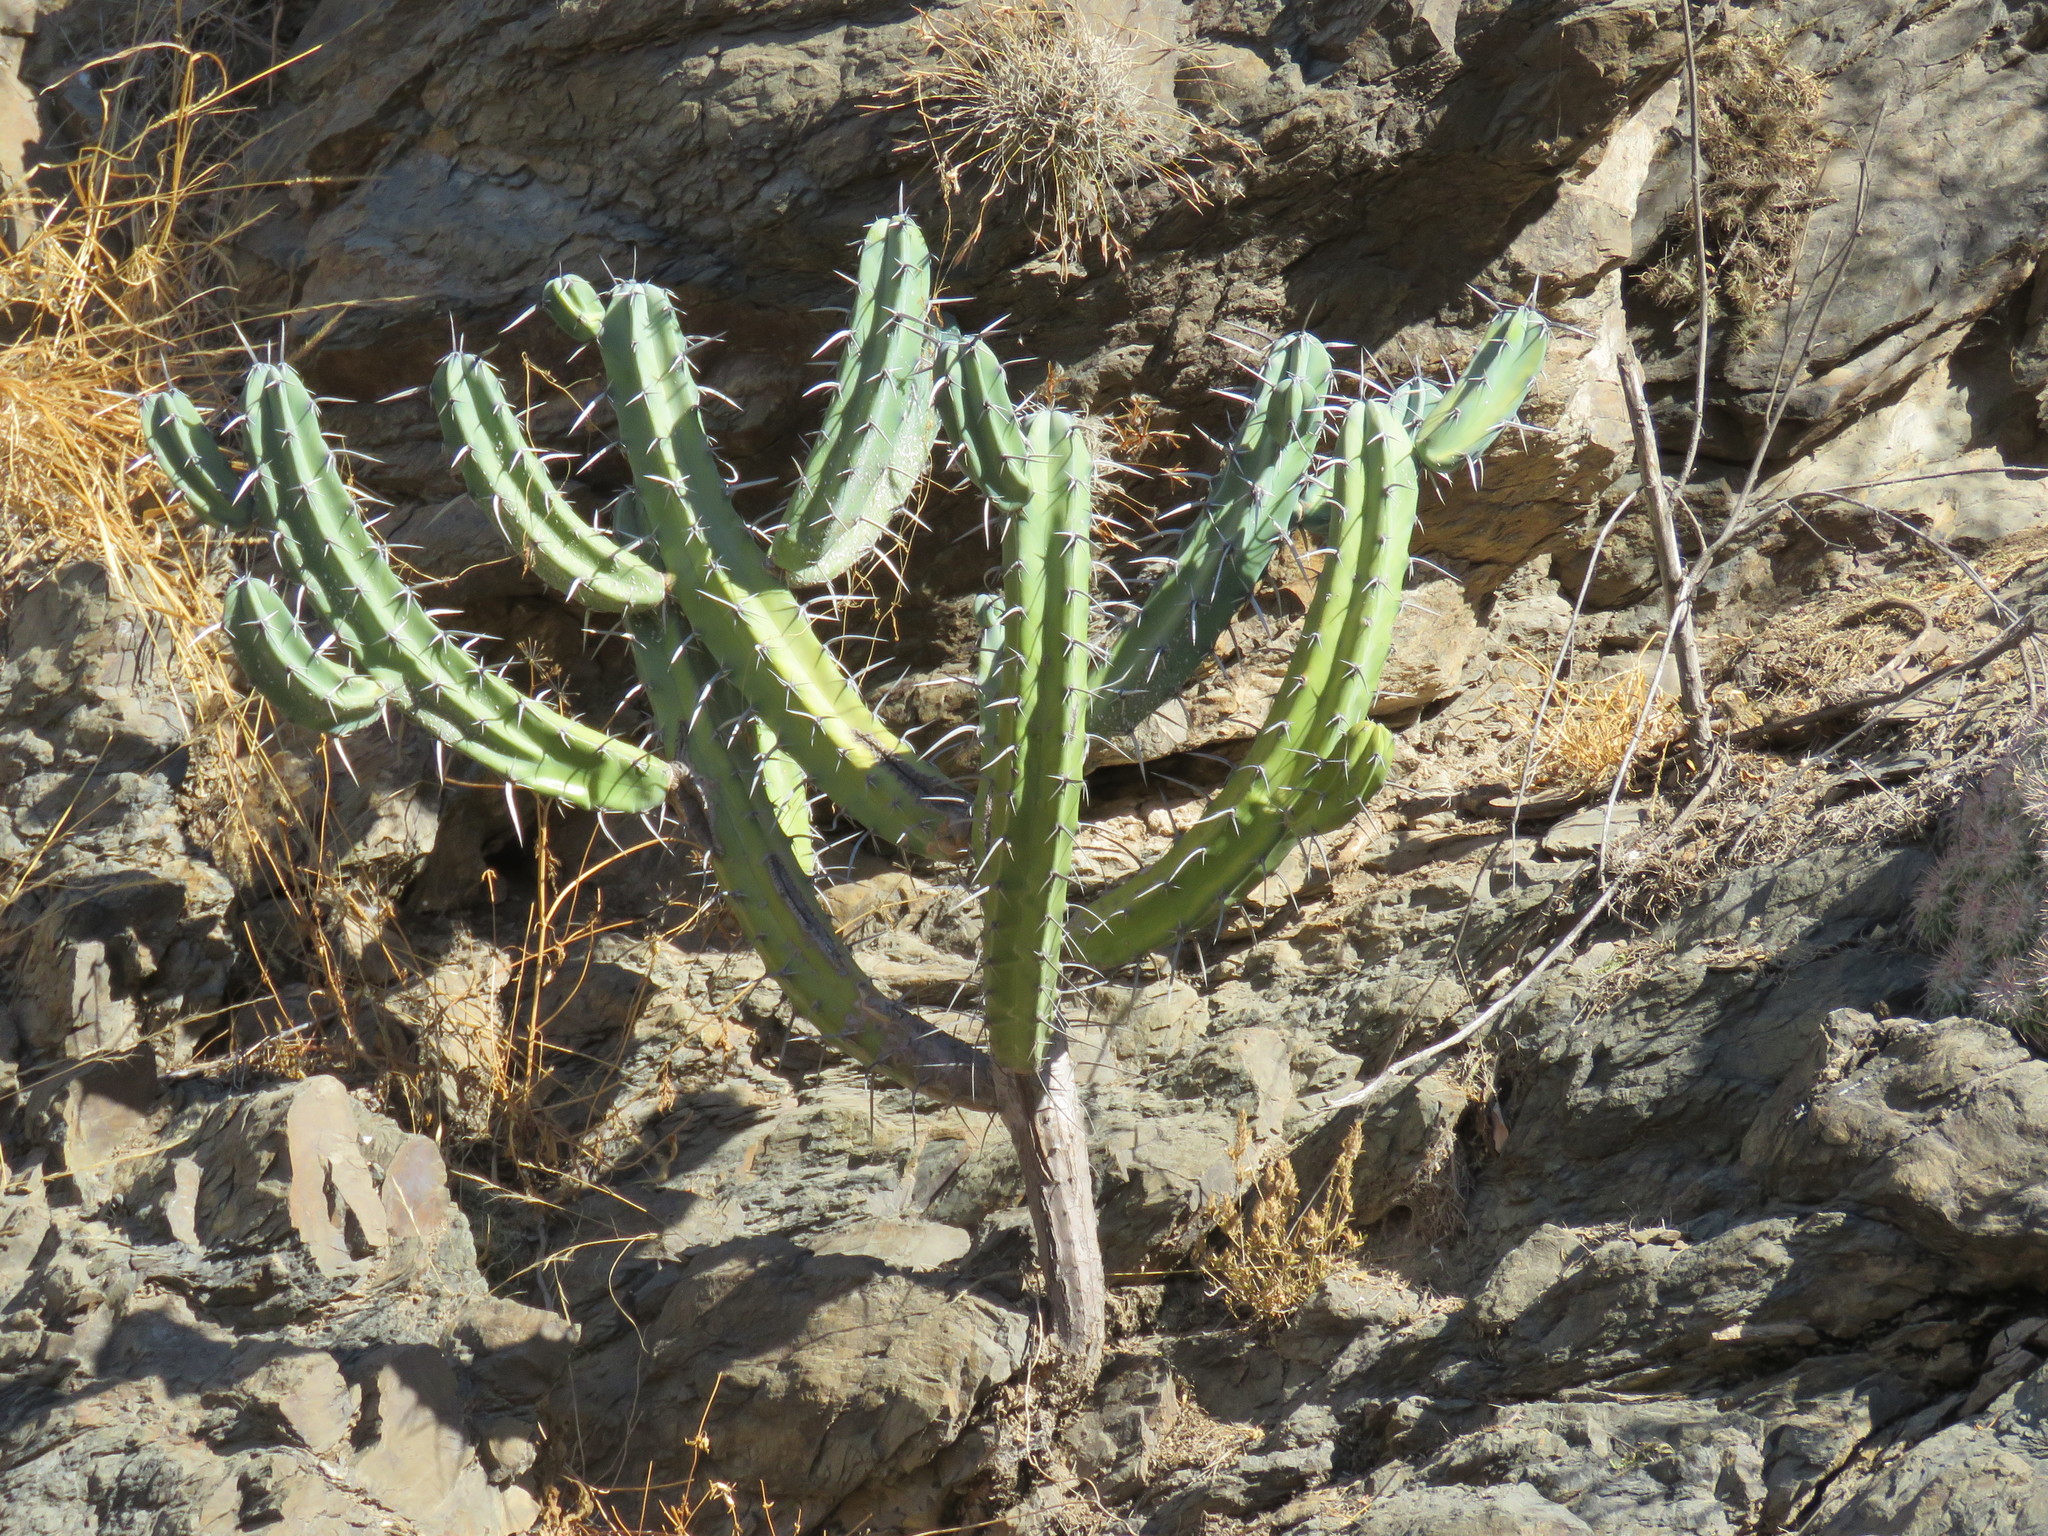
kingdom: Plantae
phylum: Tracheophyta
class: Magnoliopsida
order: Caryophyllales
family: Cactaceae
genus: Myrtillocactus
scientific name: Myrtillocactus geometrizans
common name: Bilberry cactus
